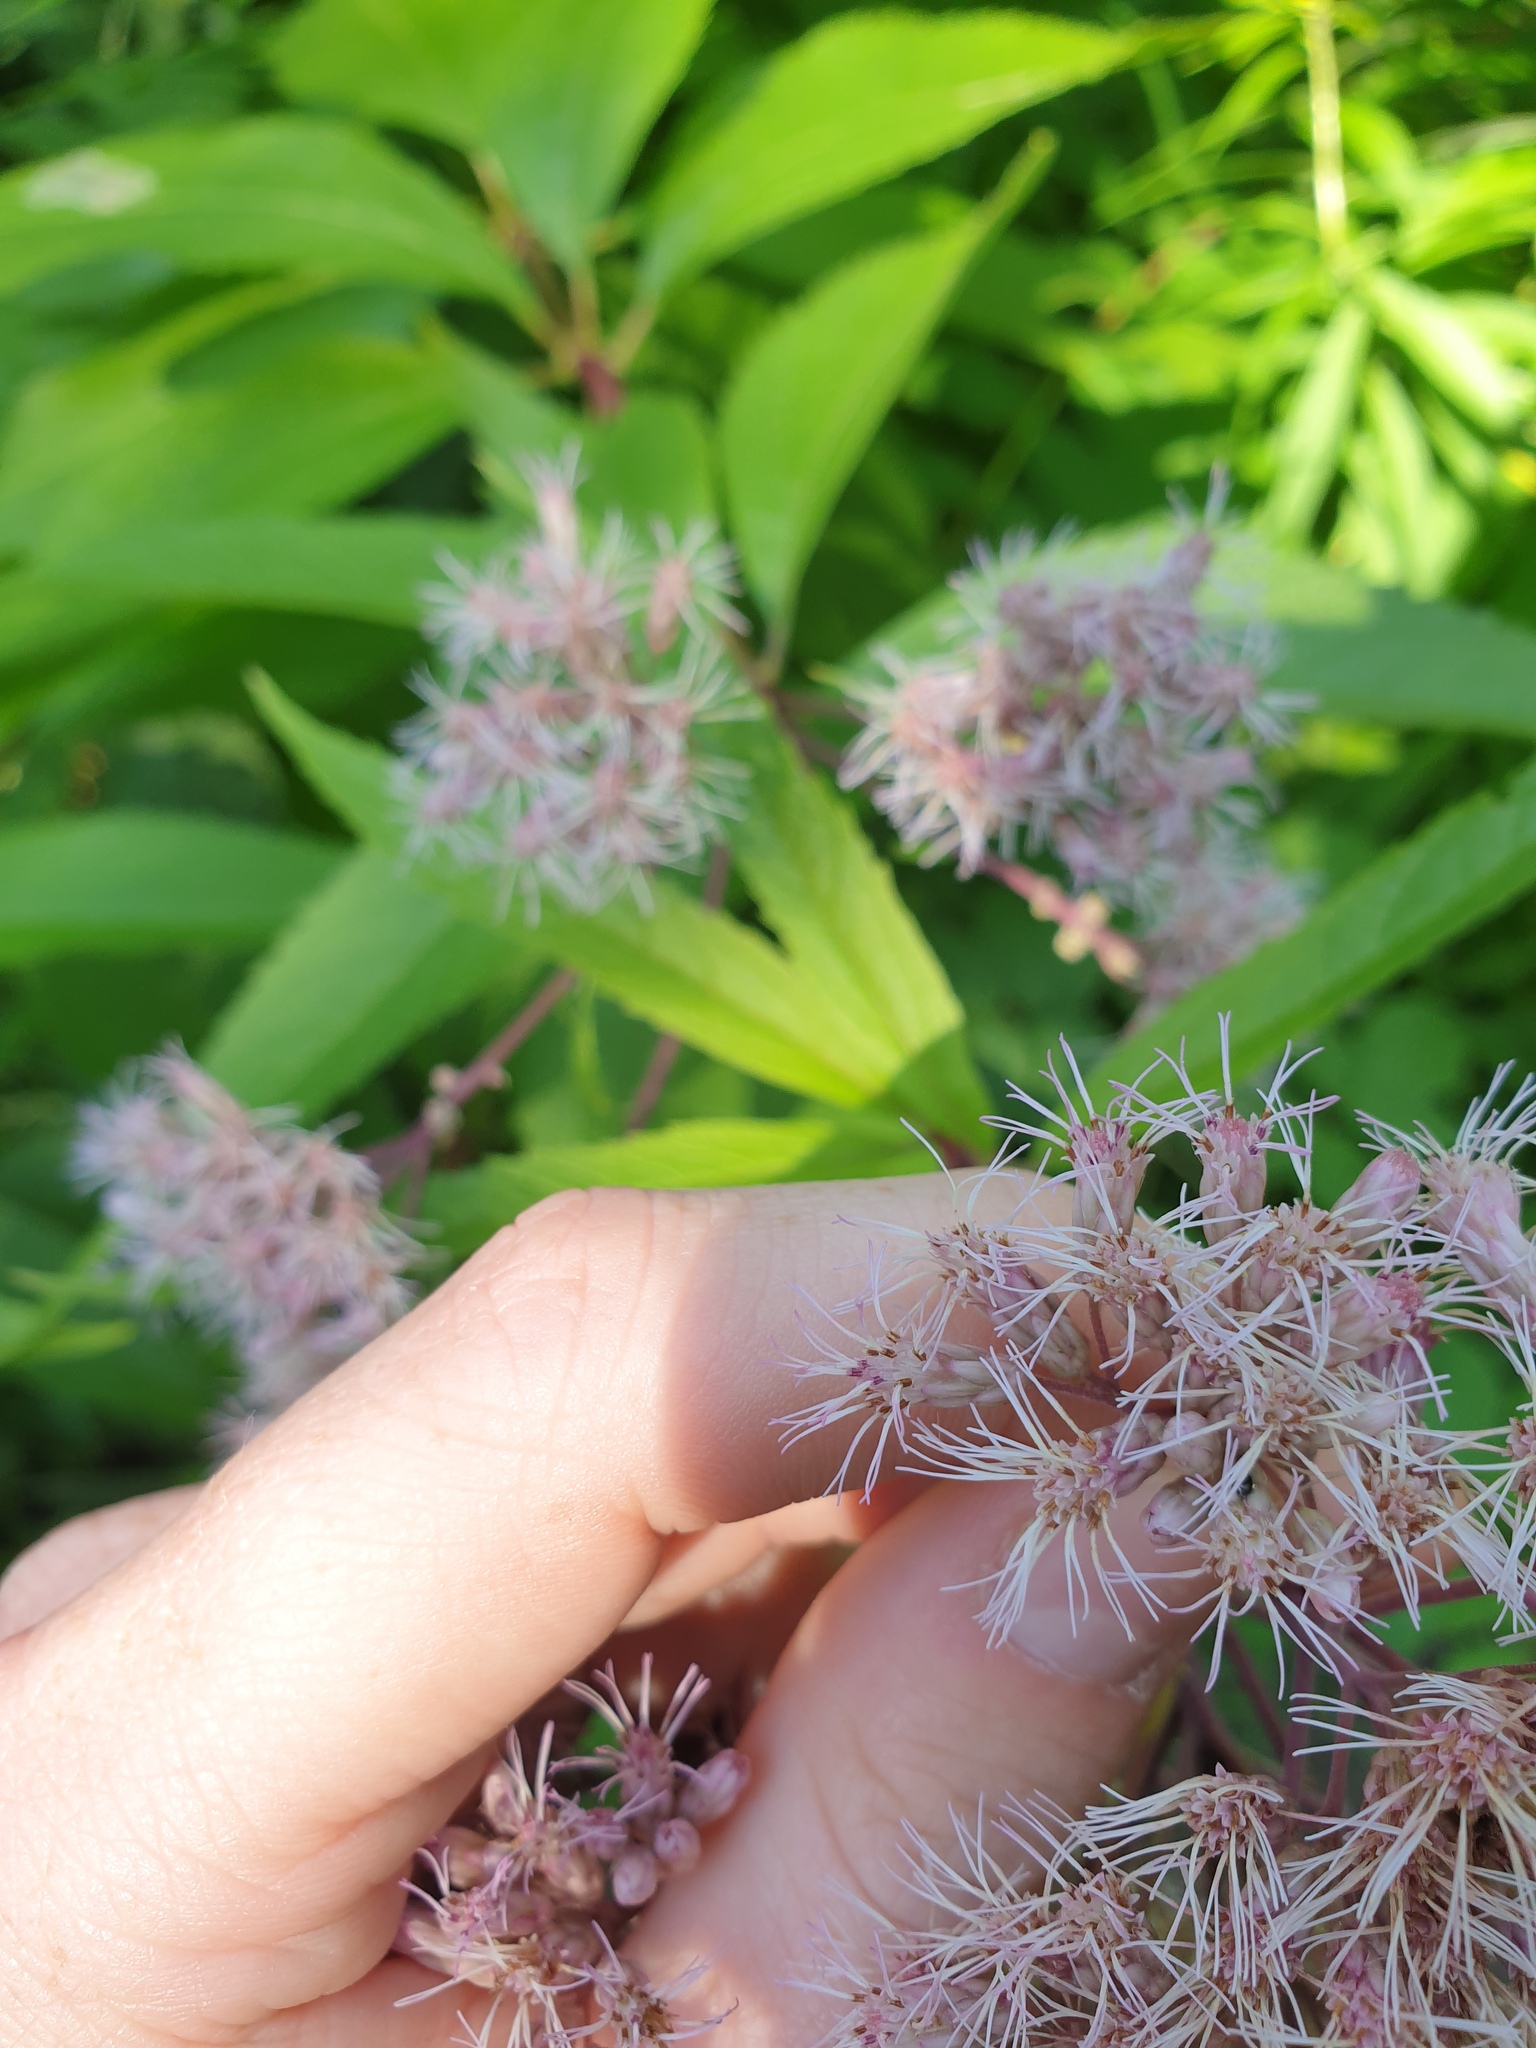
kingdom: Plantae
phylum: Tracheophyta
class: Magnoliopsida
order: Asterales
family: Asteraceae
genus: Eutrochium
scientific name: Eutrochium maculatum
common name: Spotted joe pye weed
